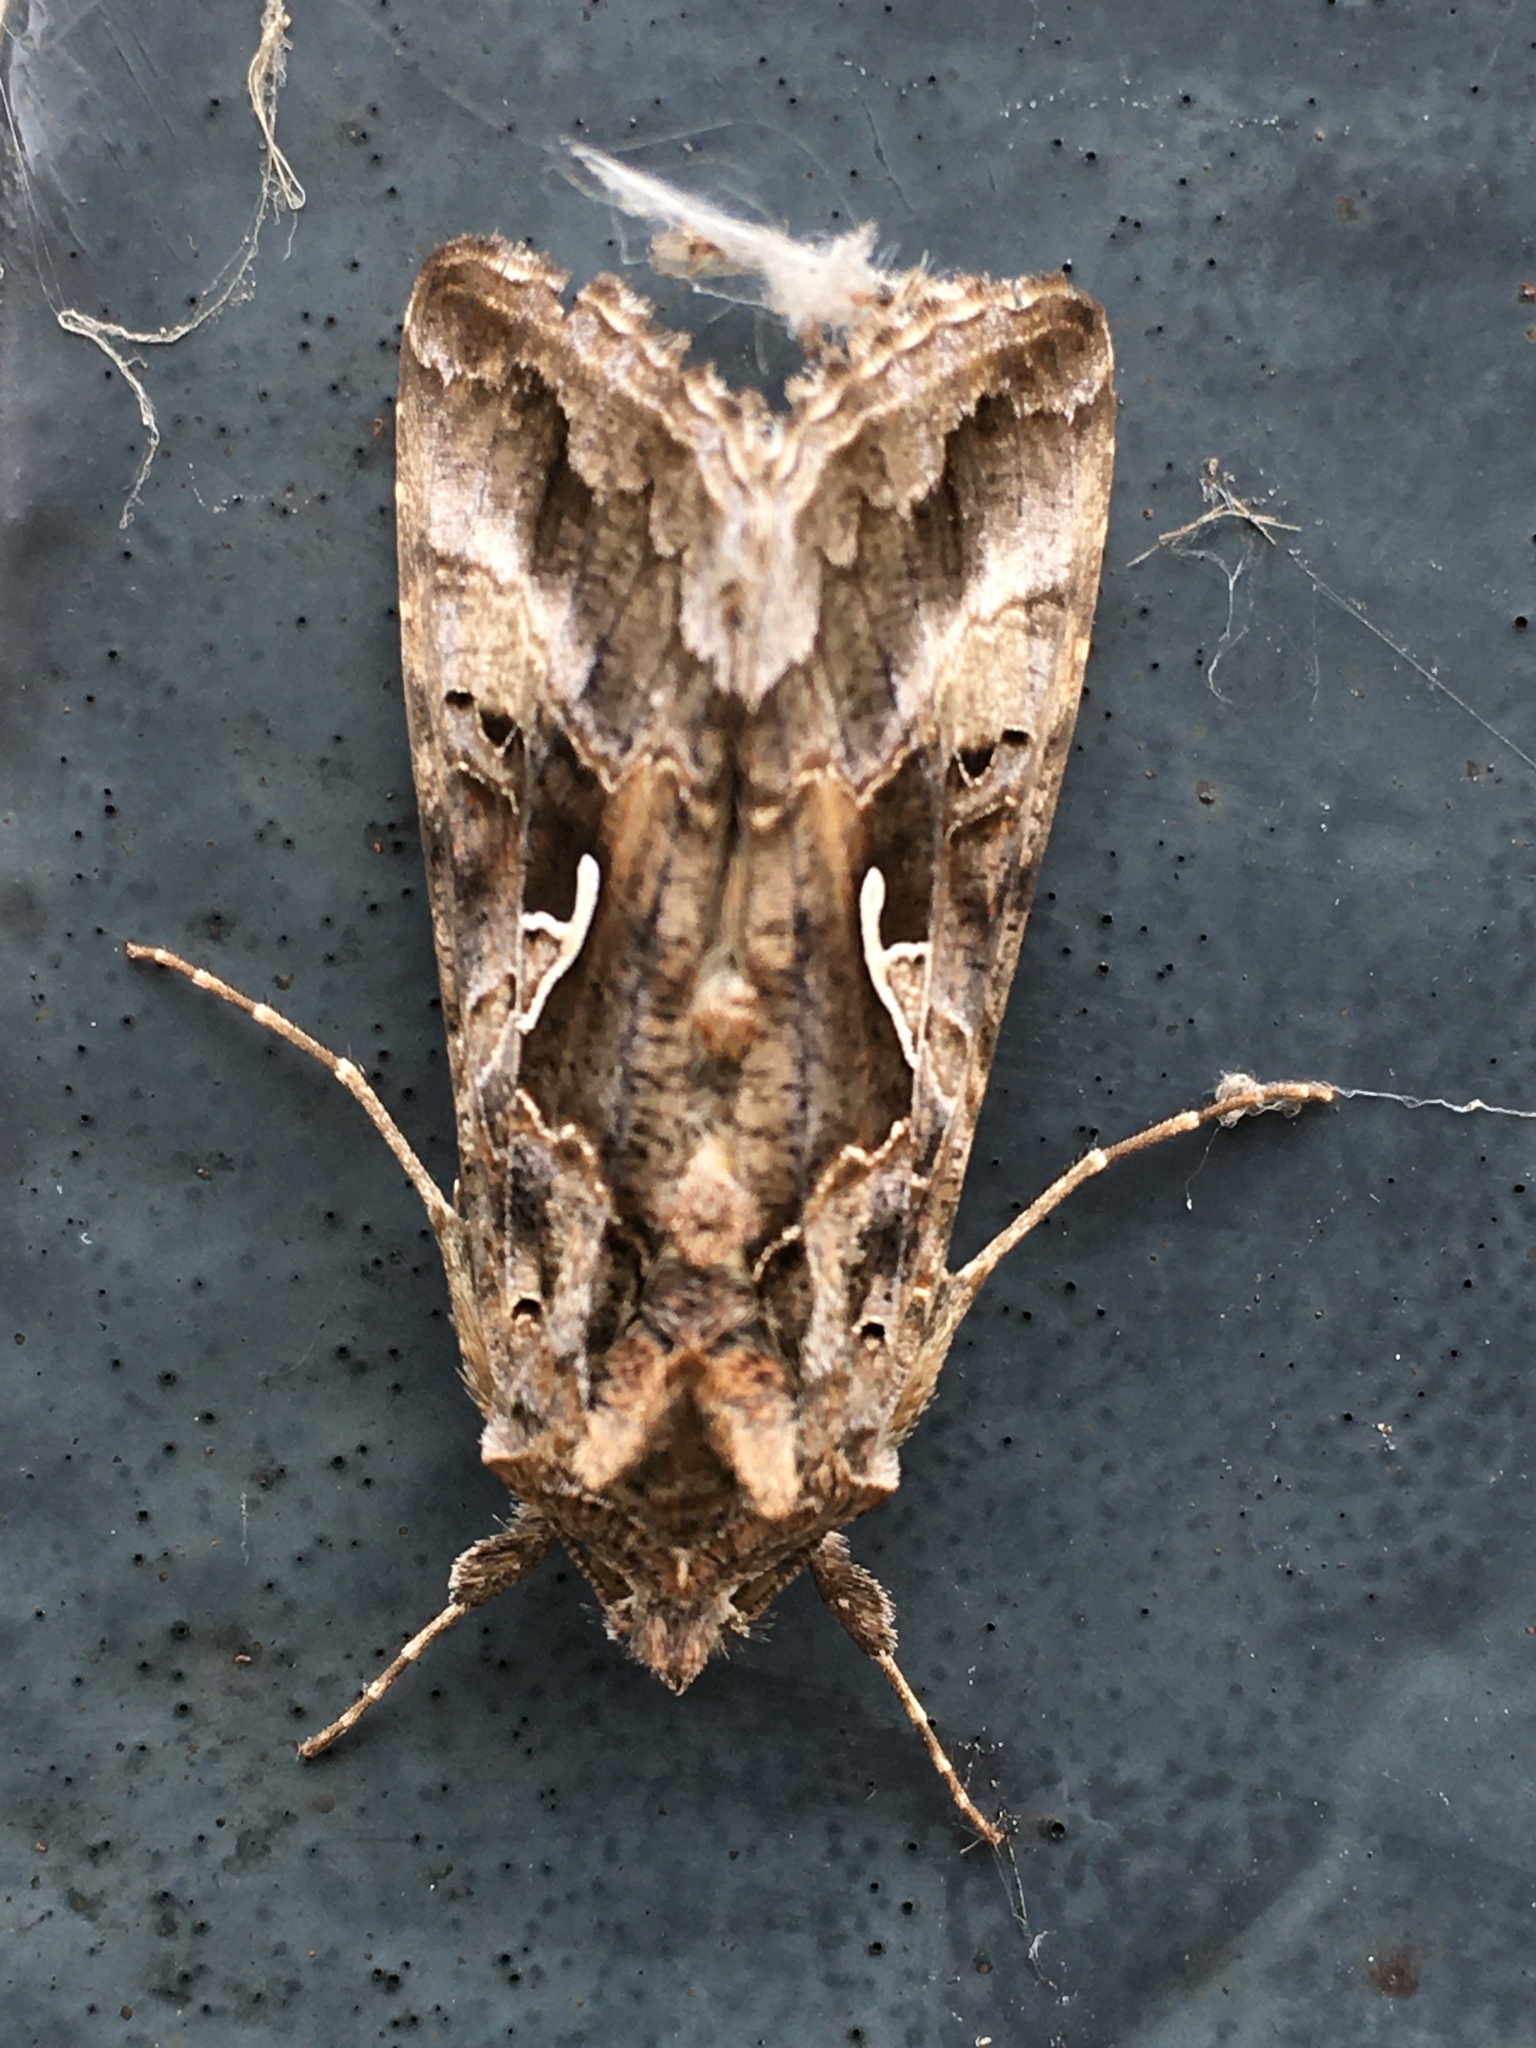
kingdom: Animalia
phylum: Arthropoda
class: Insecta
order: Lepidoptera
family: Noctuidae
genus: Autographa
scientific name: Autographa gamma
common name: Silver y
